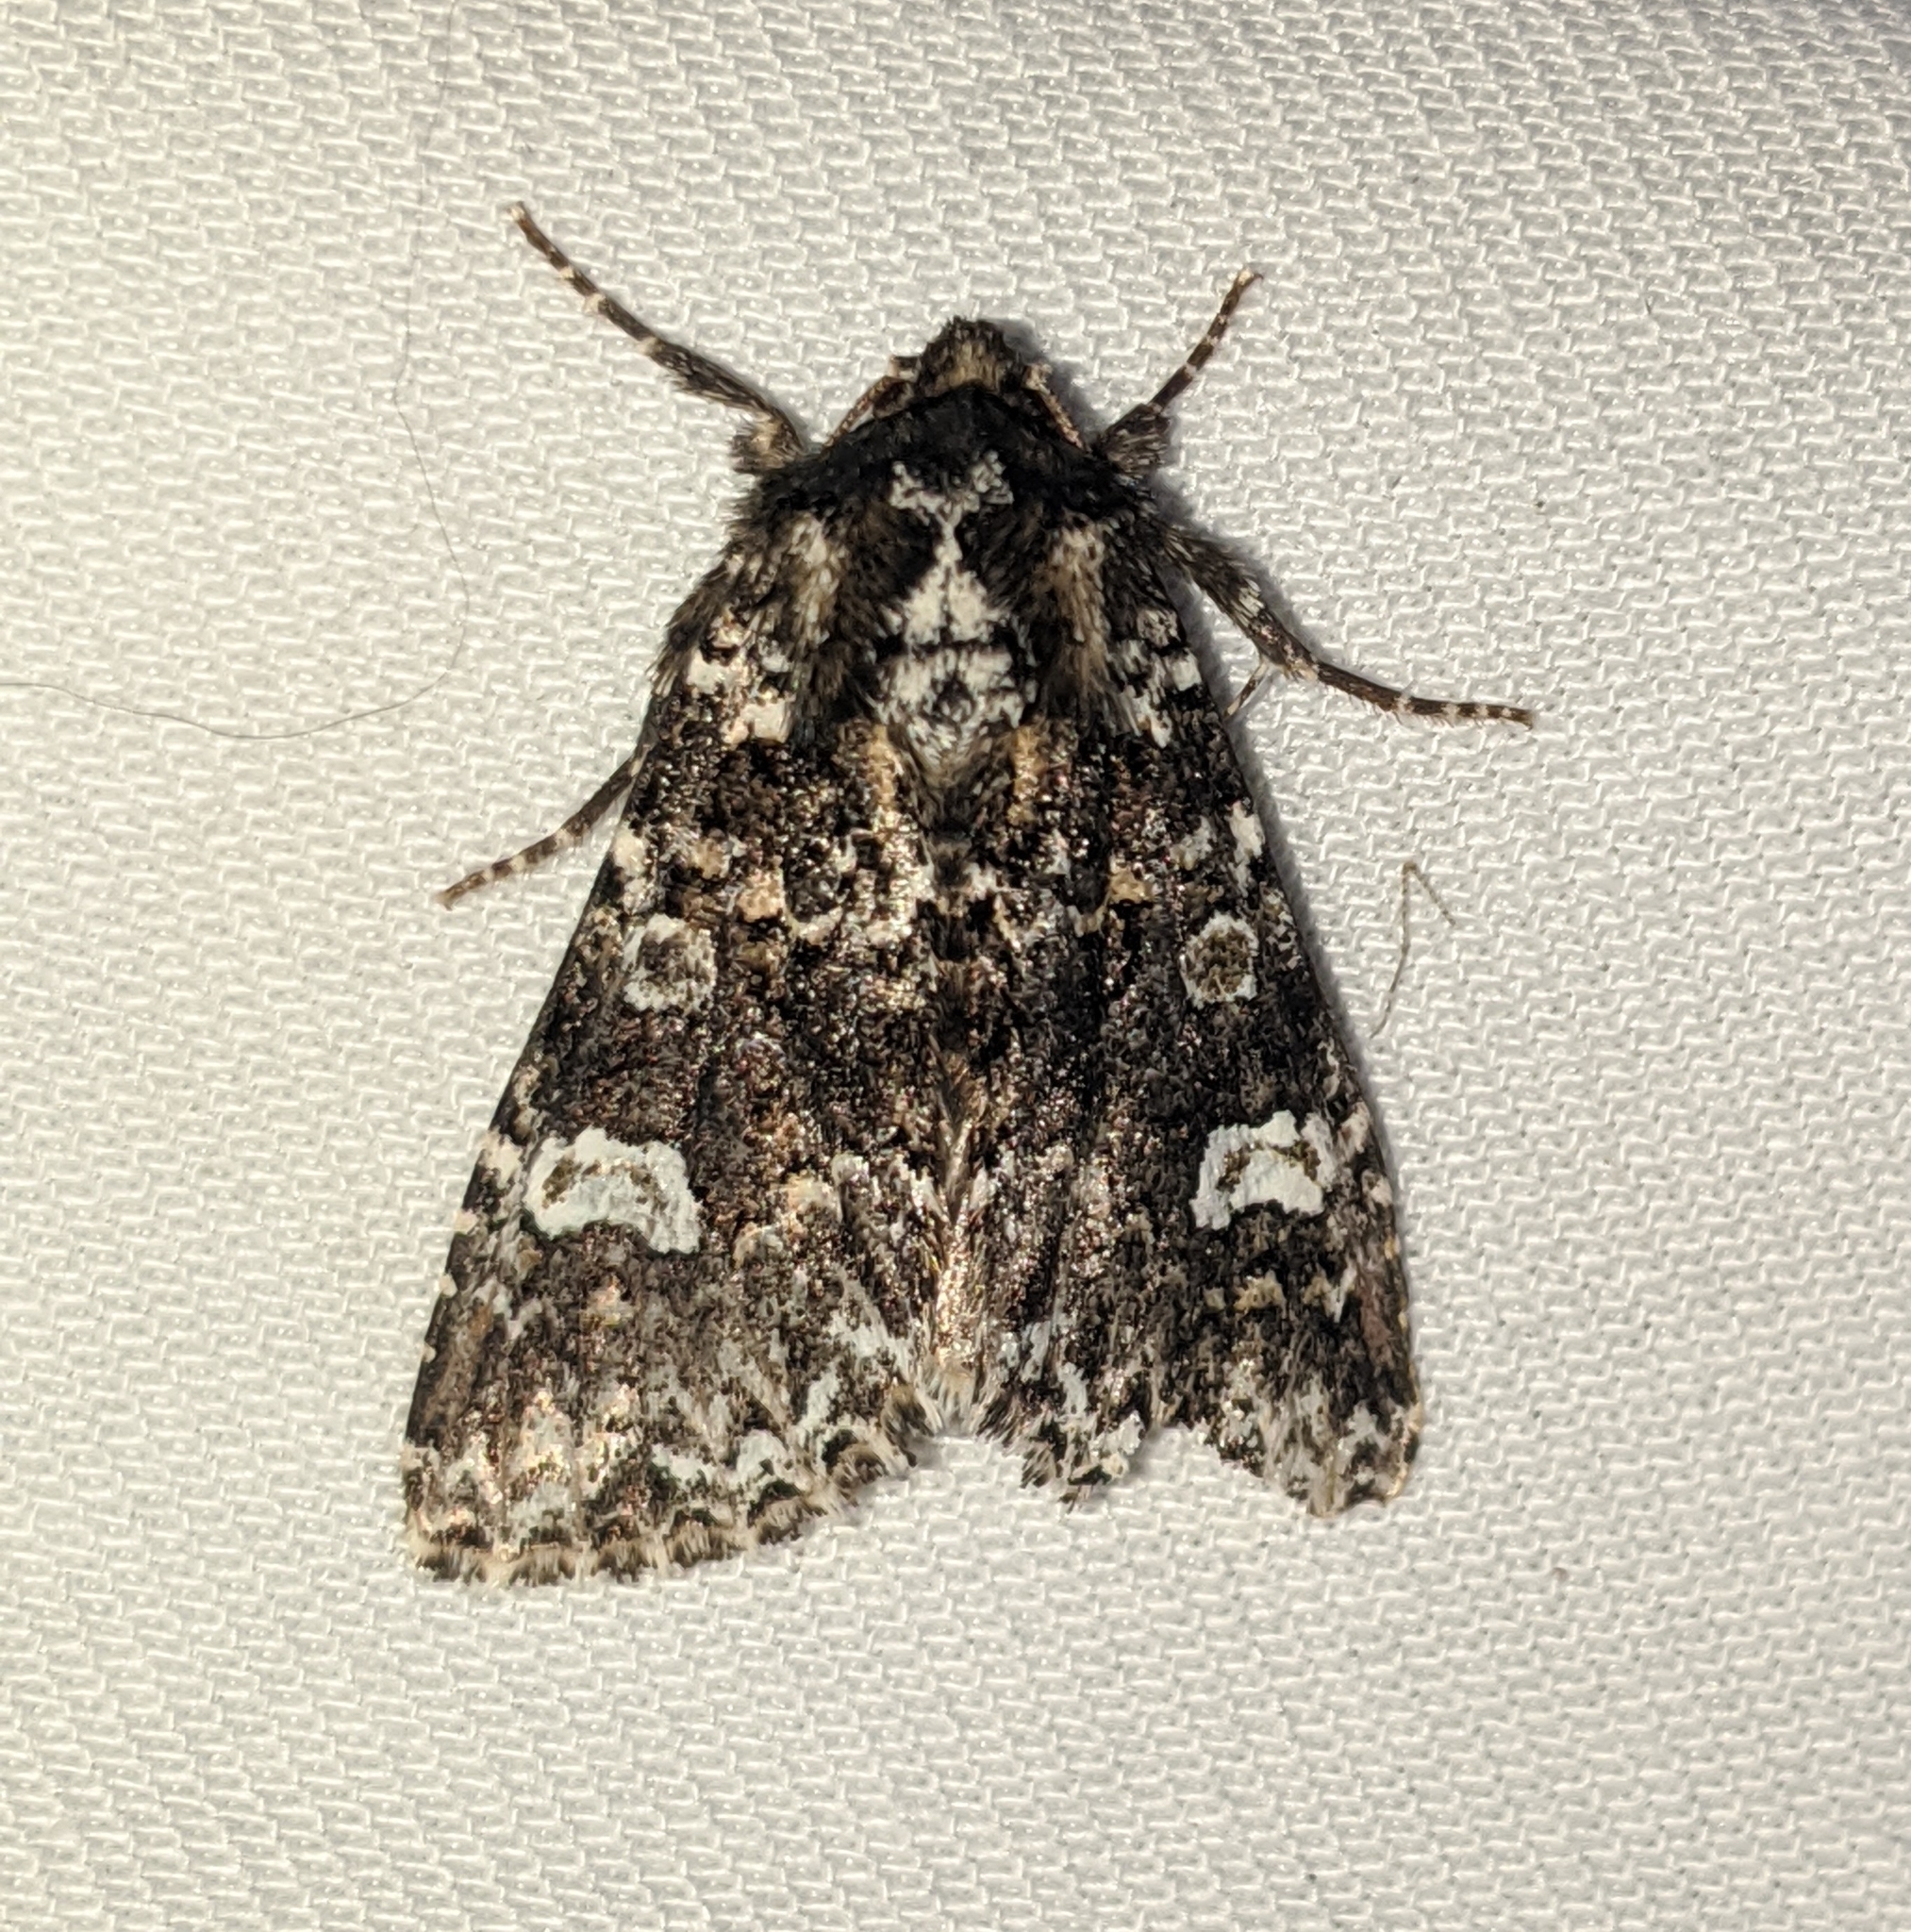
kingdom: Animalia
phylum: Arthropoda
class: Insecta
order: Lepidoptera
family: Noctuidae
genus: Melanchra
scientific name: Melanchra adjuncta
